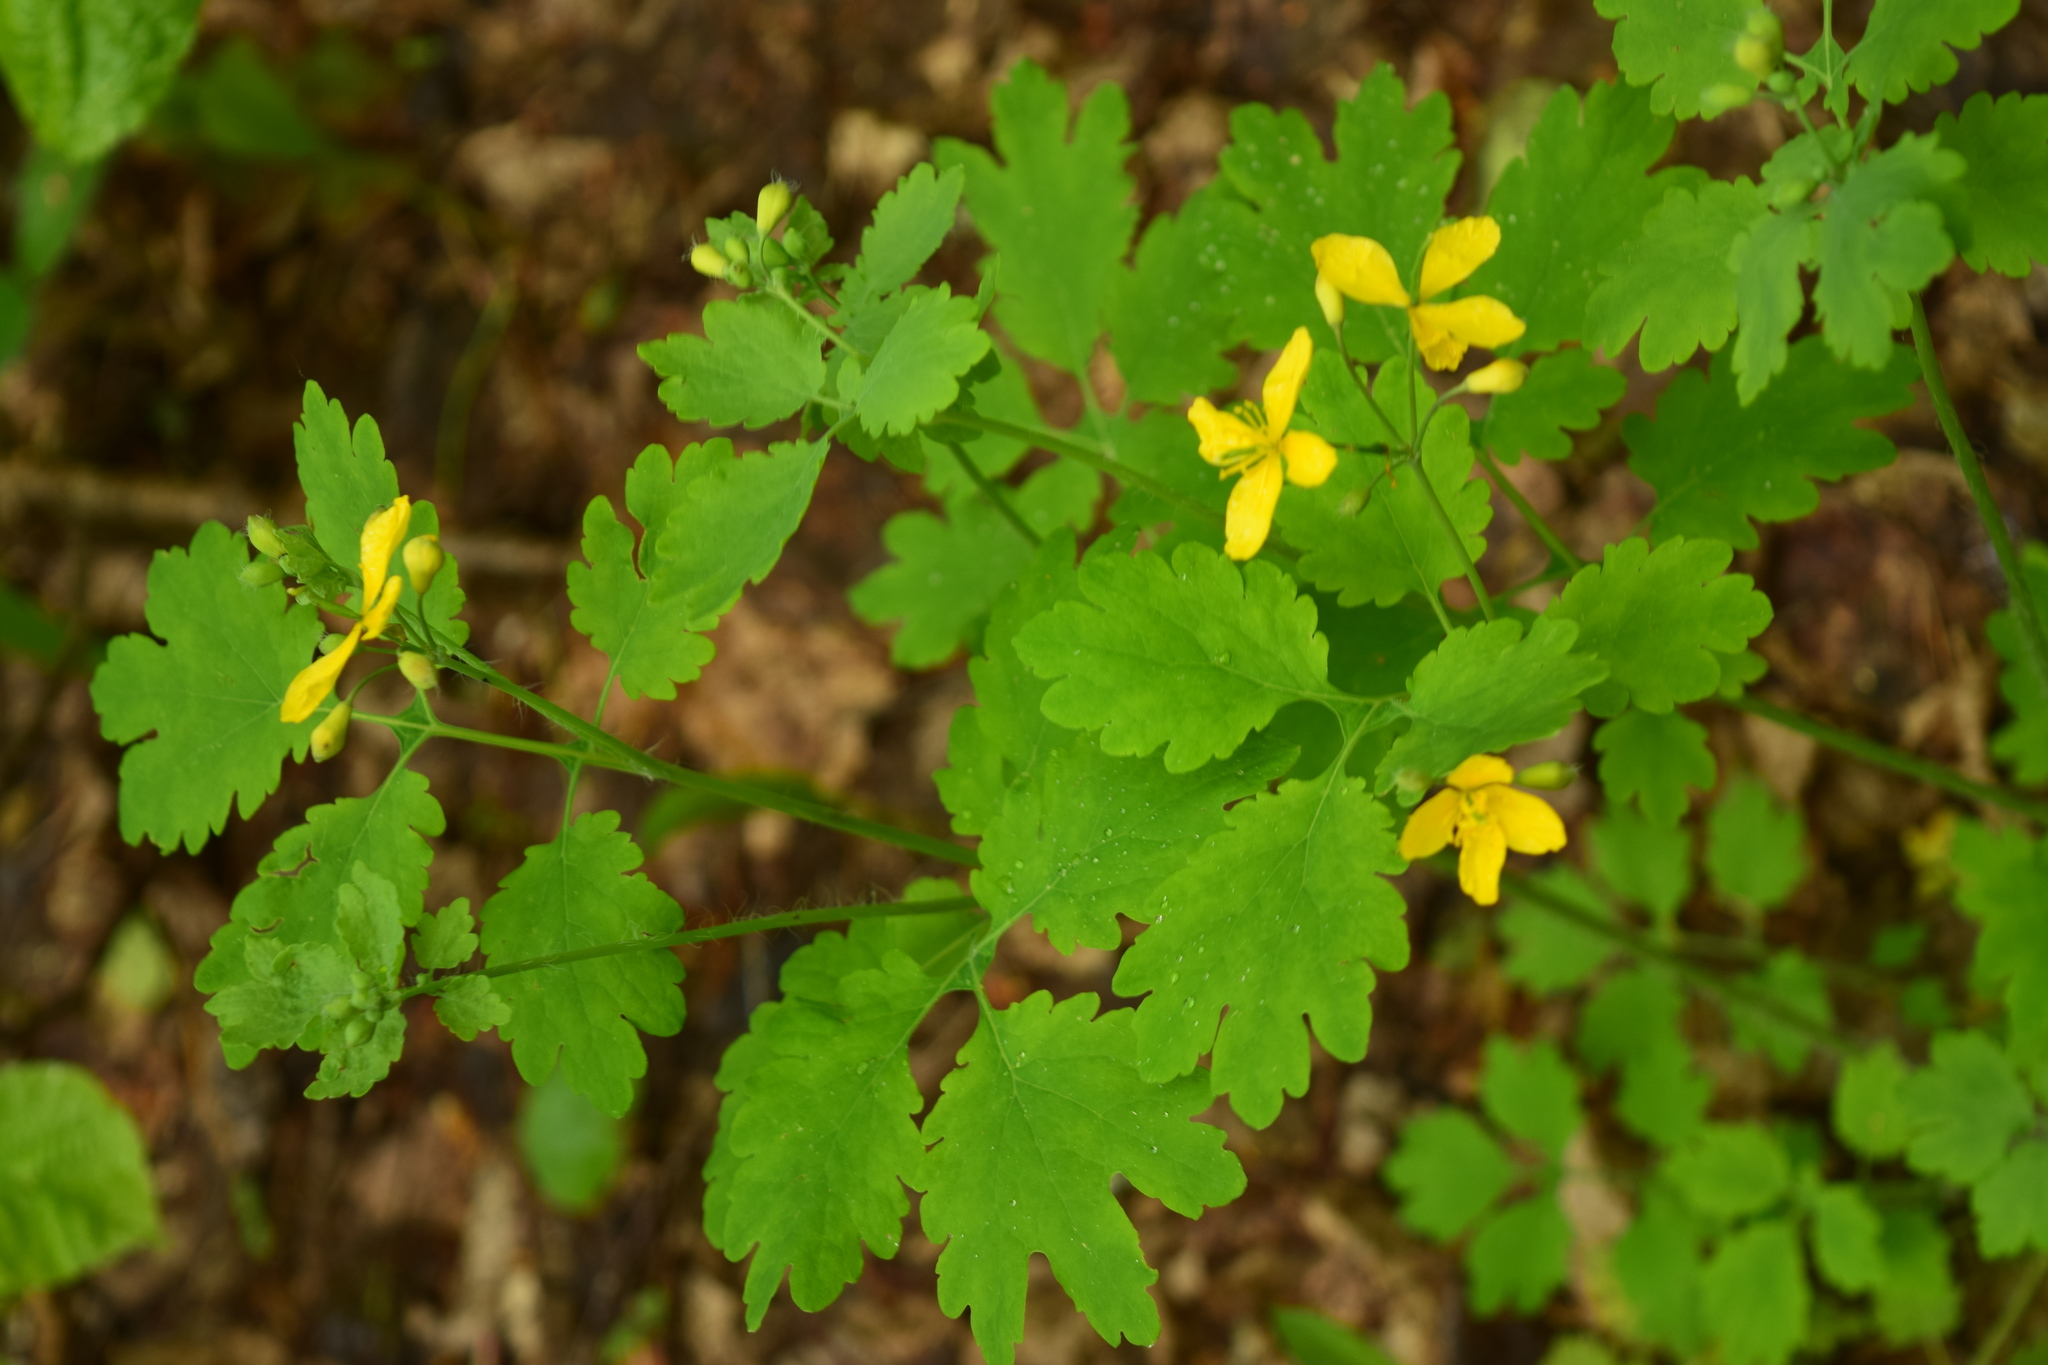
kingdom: Plantae
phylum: Tracheophyta
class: Magnoliopsida
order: Ranunculales
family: Papaveraceae
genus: Chelidonium
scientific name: Chelidonium majus
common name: Greater celandine
